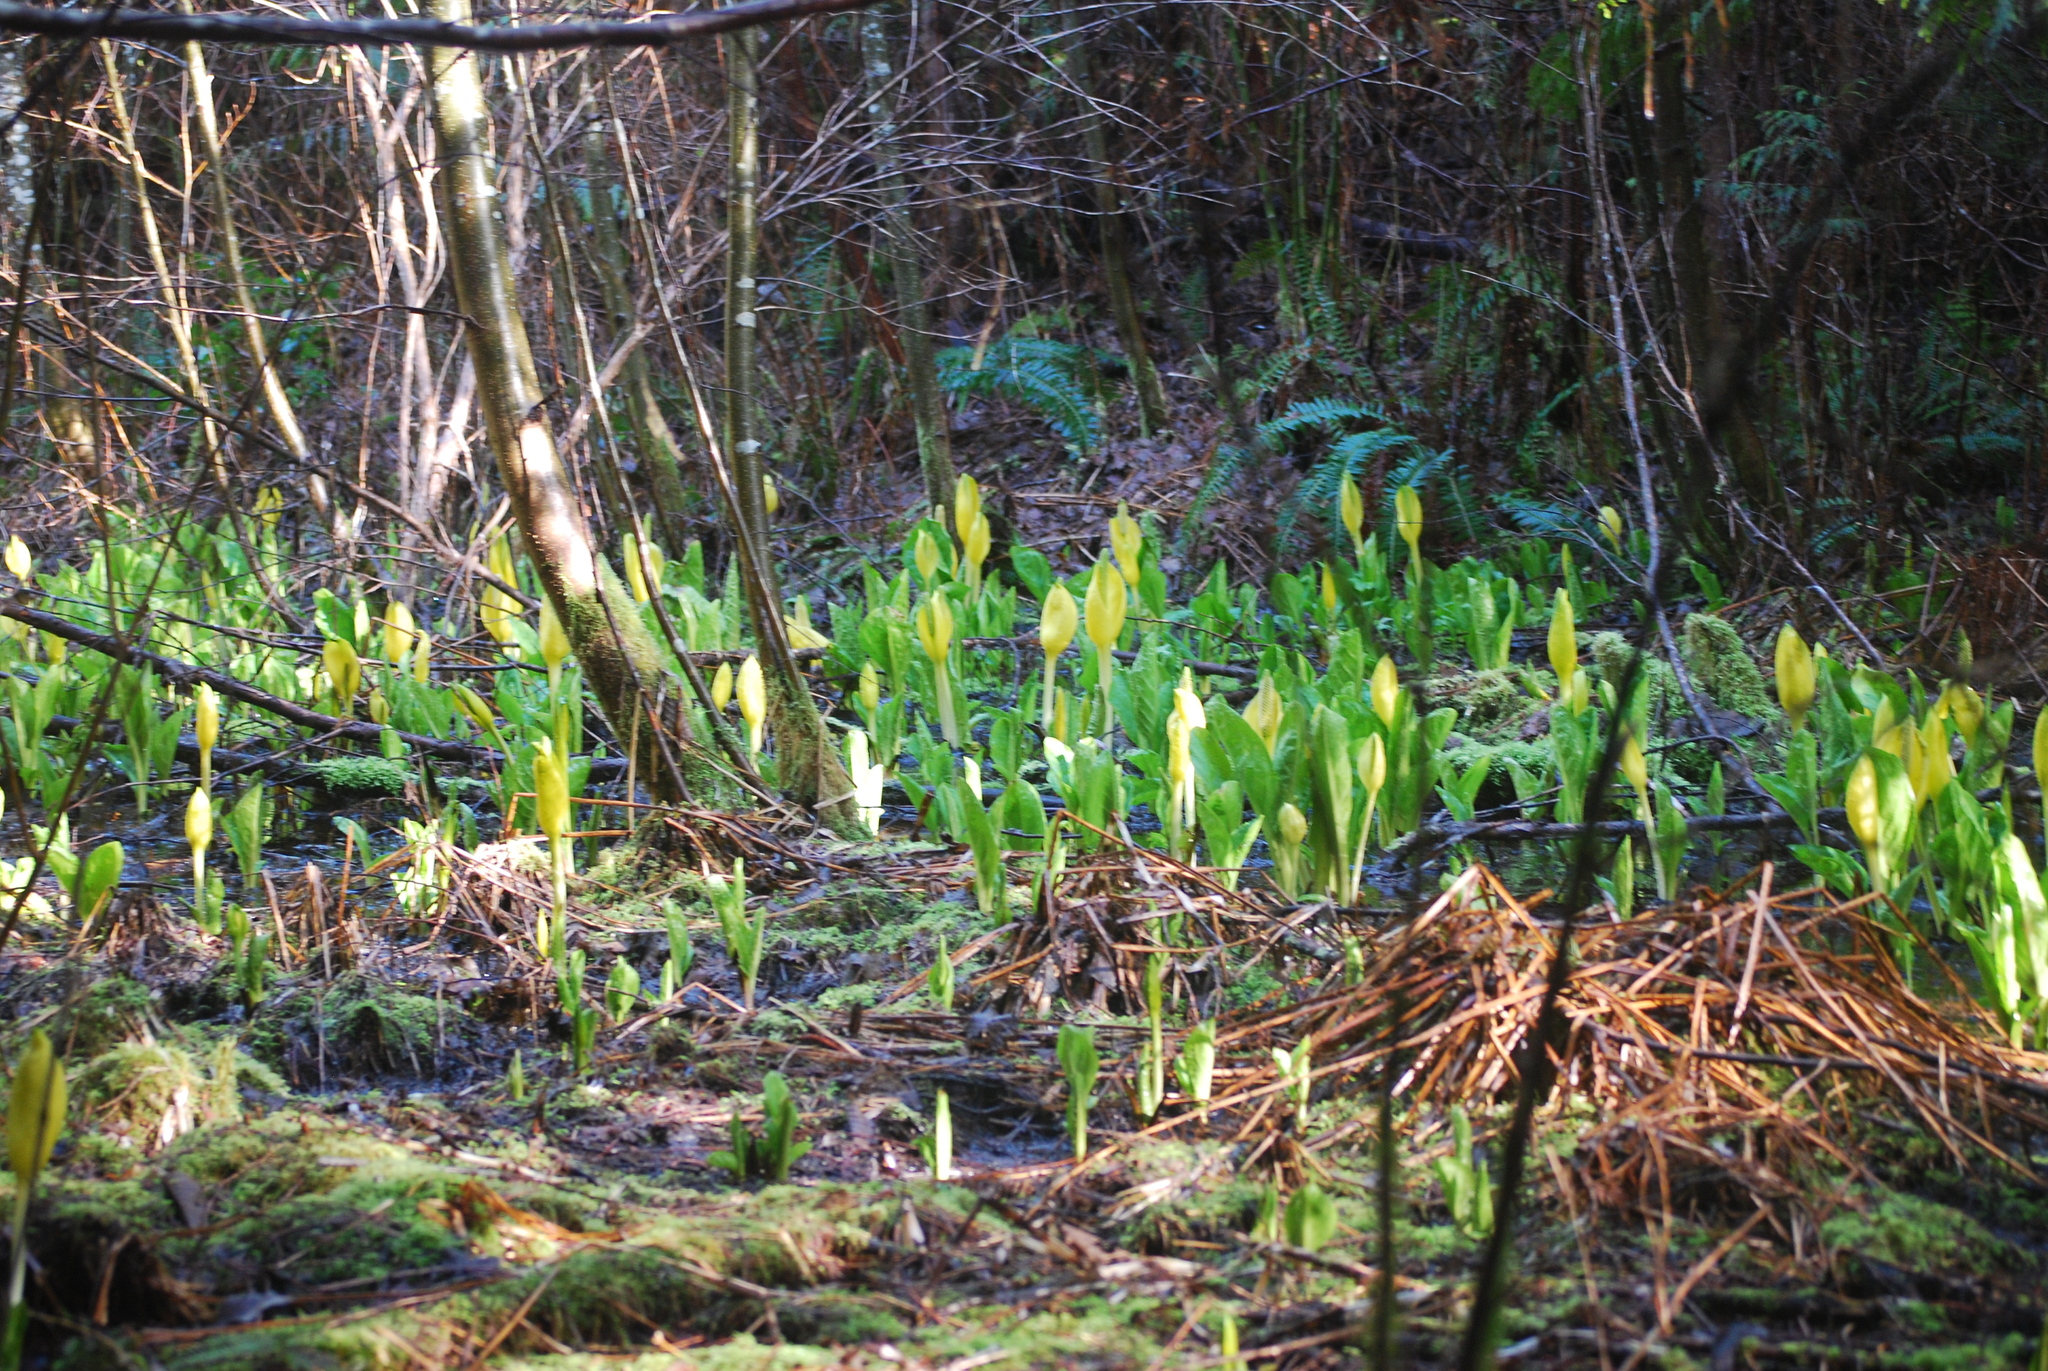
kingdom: Plantae
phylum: Tracheophyta
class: Liliopsida
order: Alismatales
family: Araceae
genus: Lysichiton
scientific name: Lysichiton americanus
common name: American skunk cabbage
